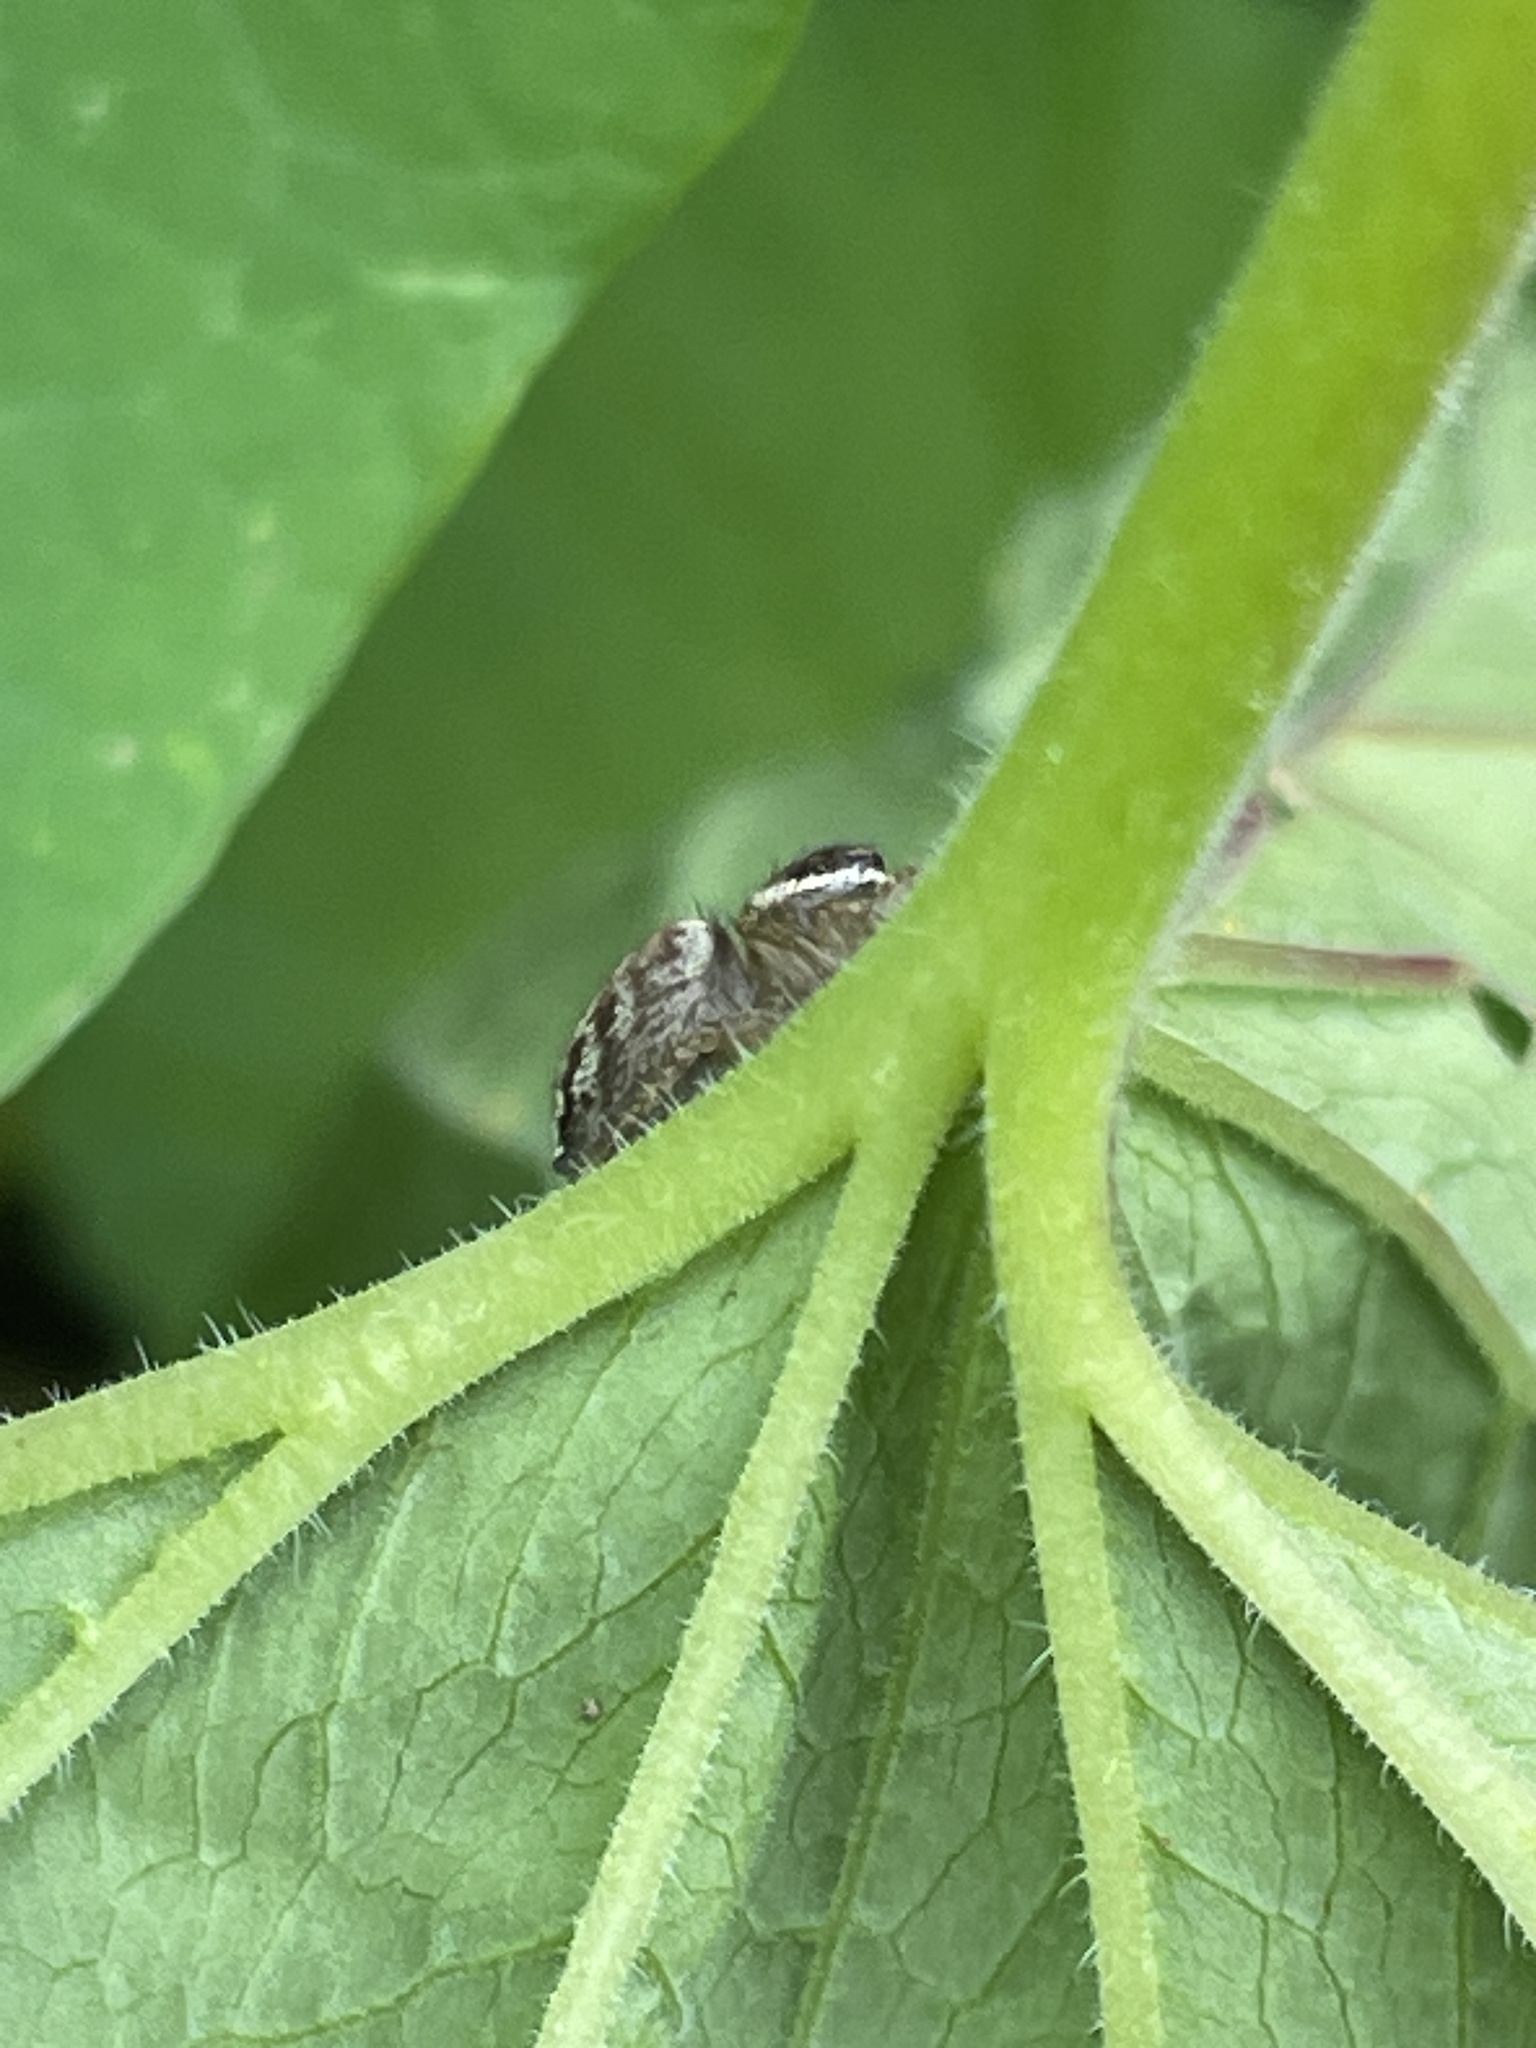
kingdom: Animalia
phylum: Arthropoda
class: Arachnida
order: Araneae
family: Salticidae
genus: Maratus
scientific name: Maratus griseus
